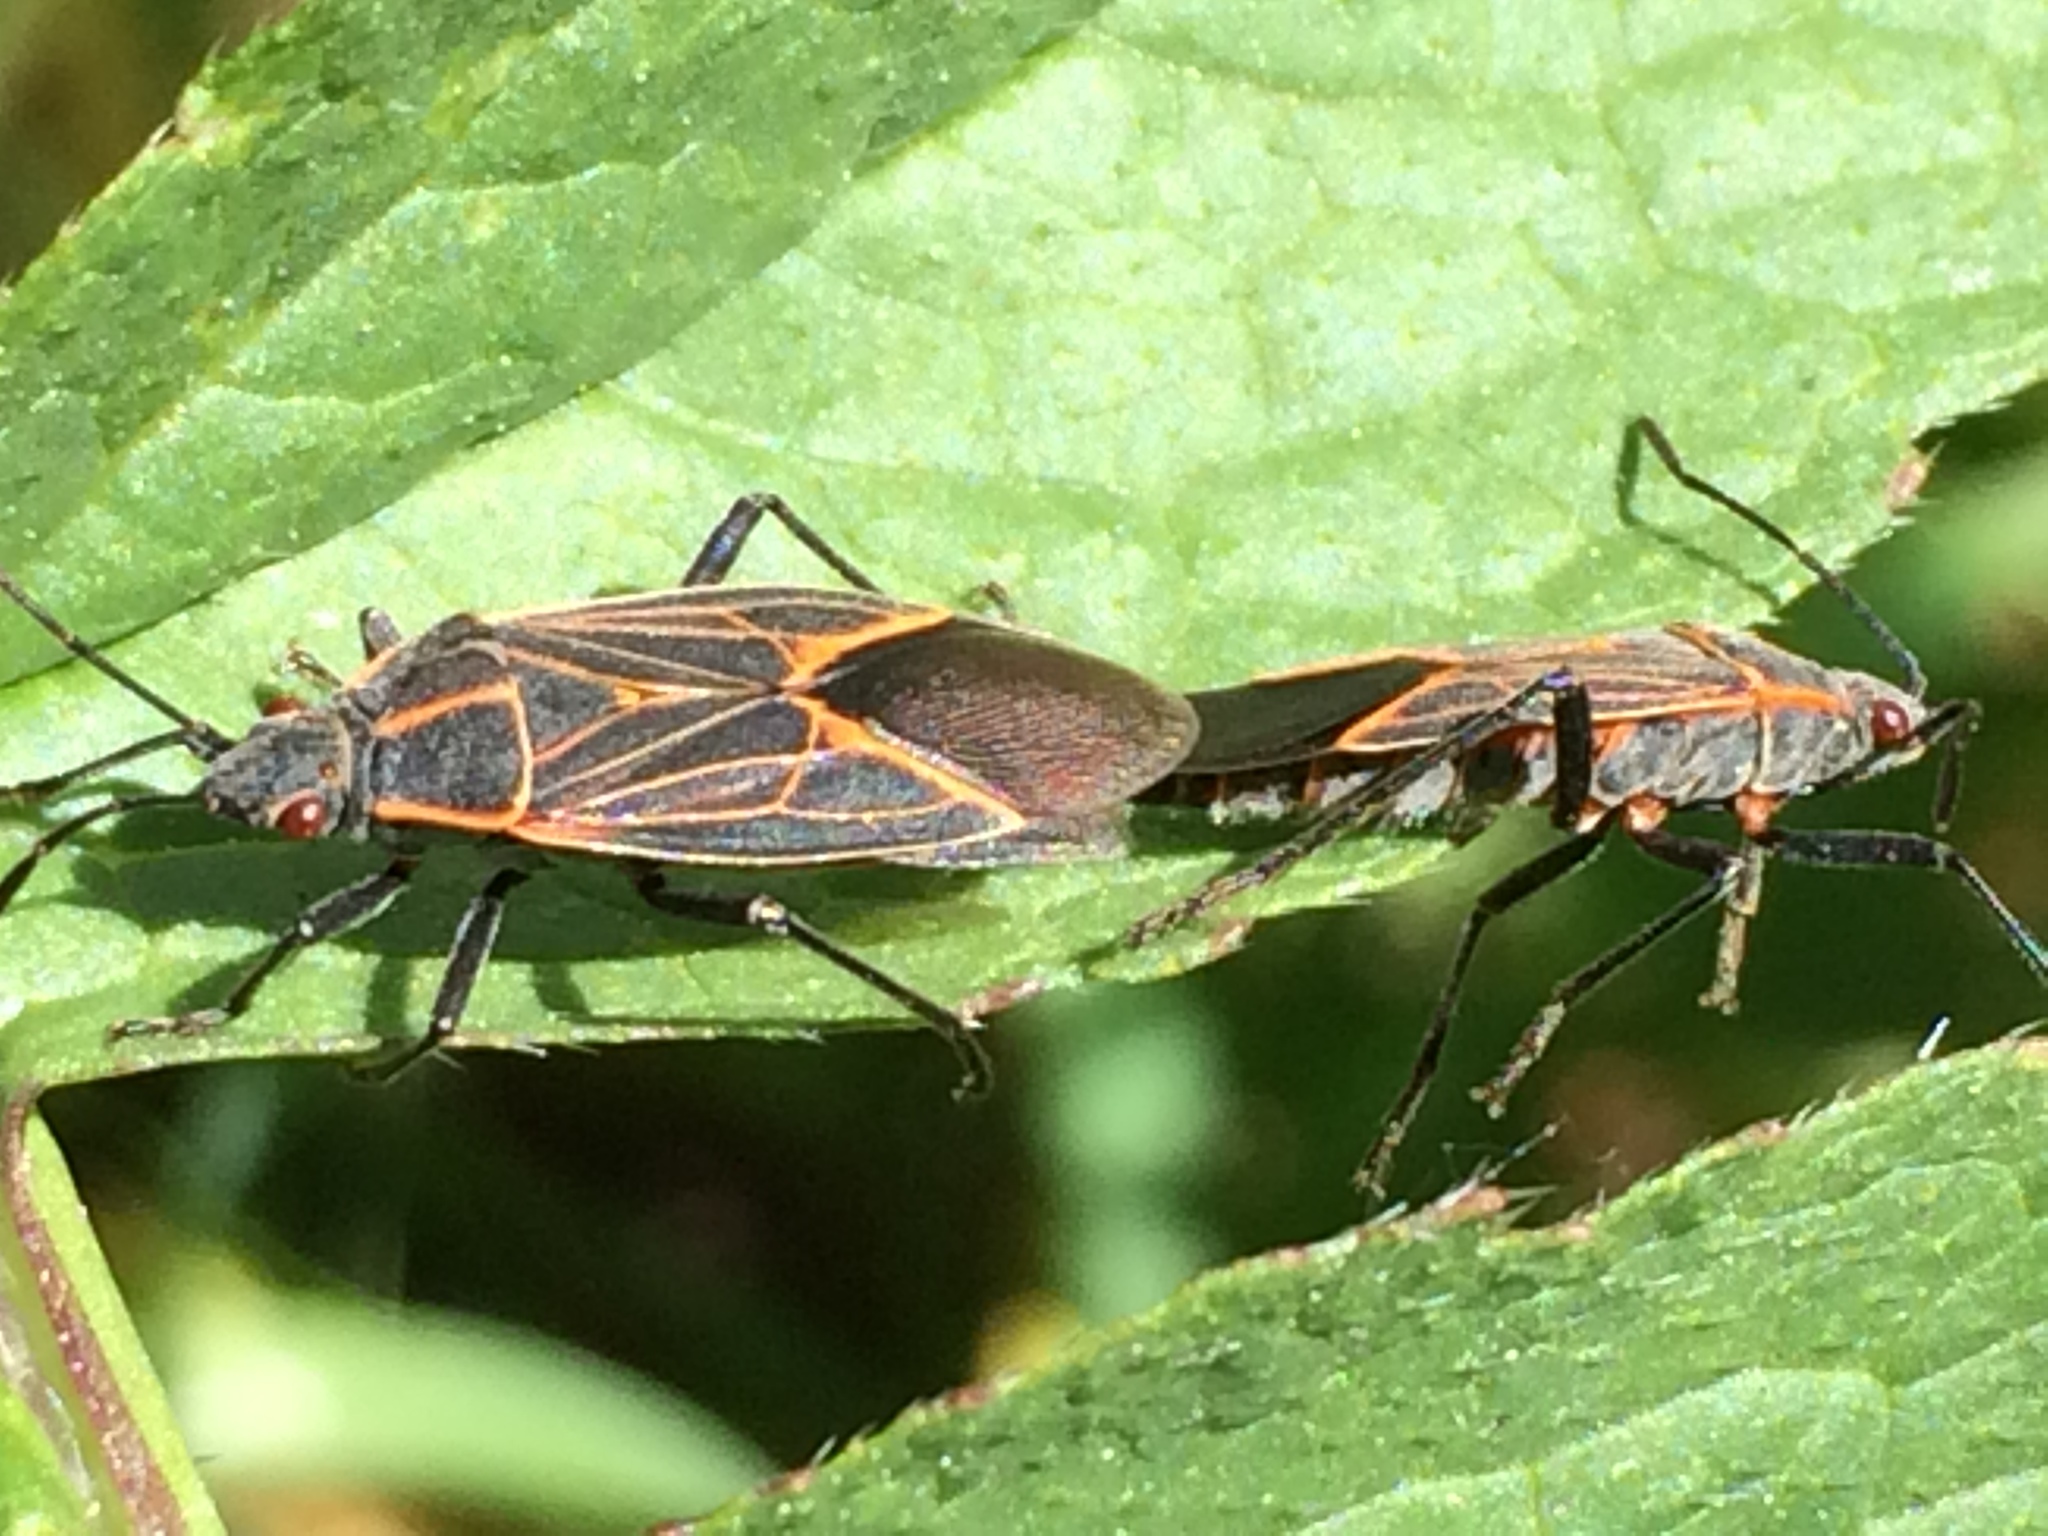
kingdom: Animalia
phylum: Arthropoda
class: Insecta
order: Hemiptera
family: Rhopalidae
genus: Boisea
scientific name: Boisea rubrolineata
